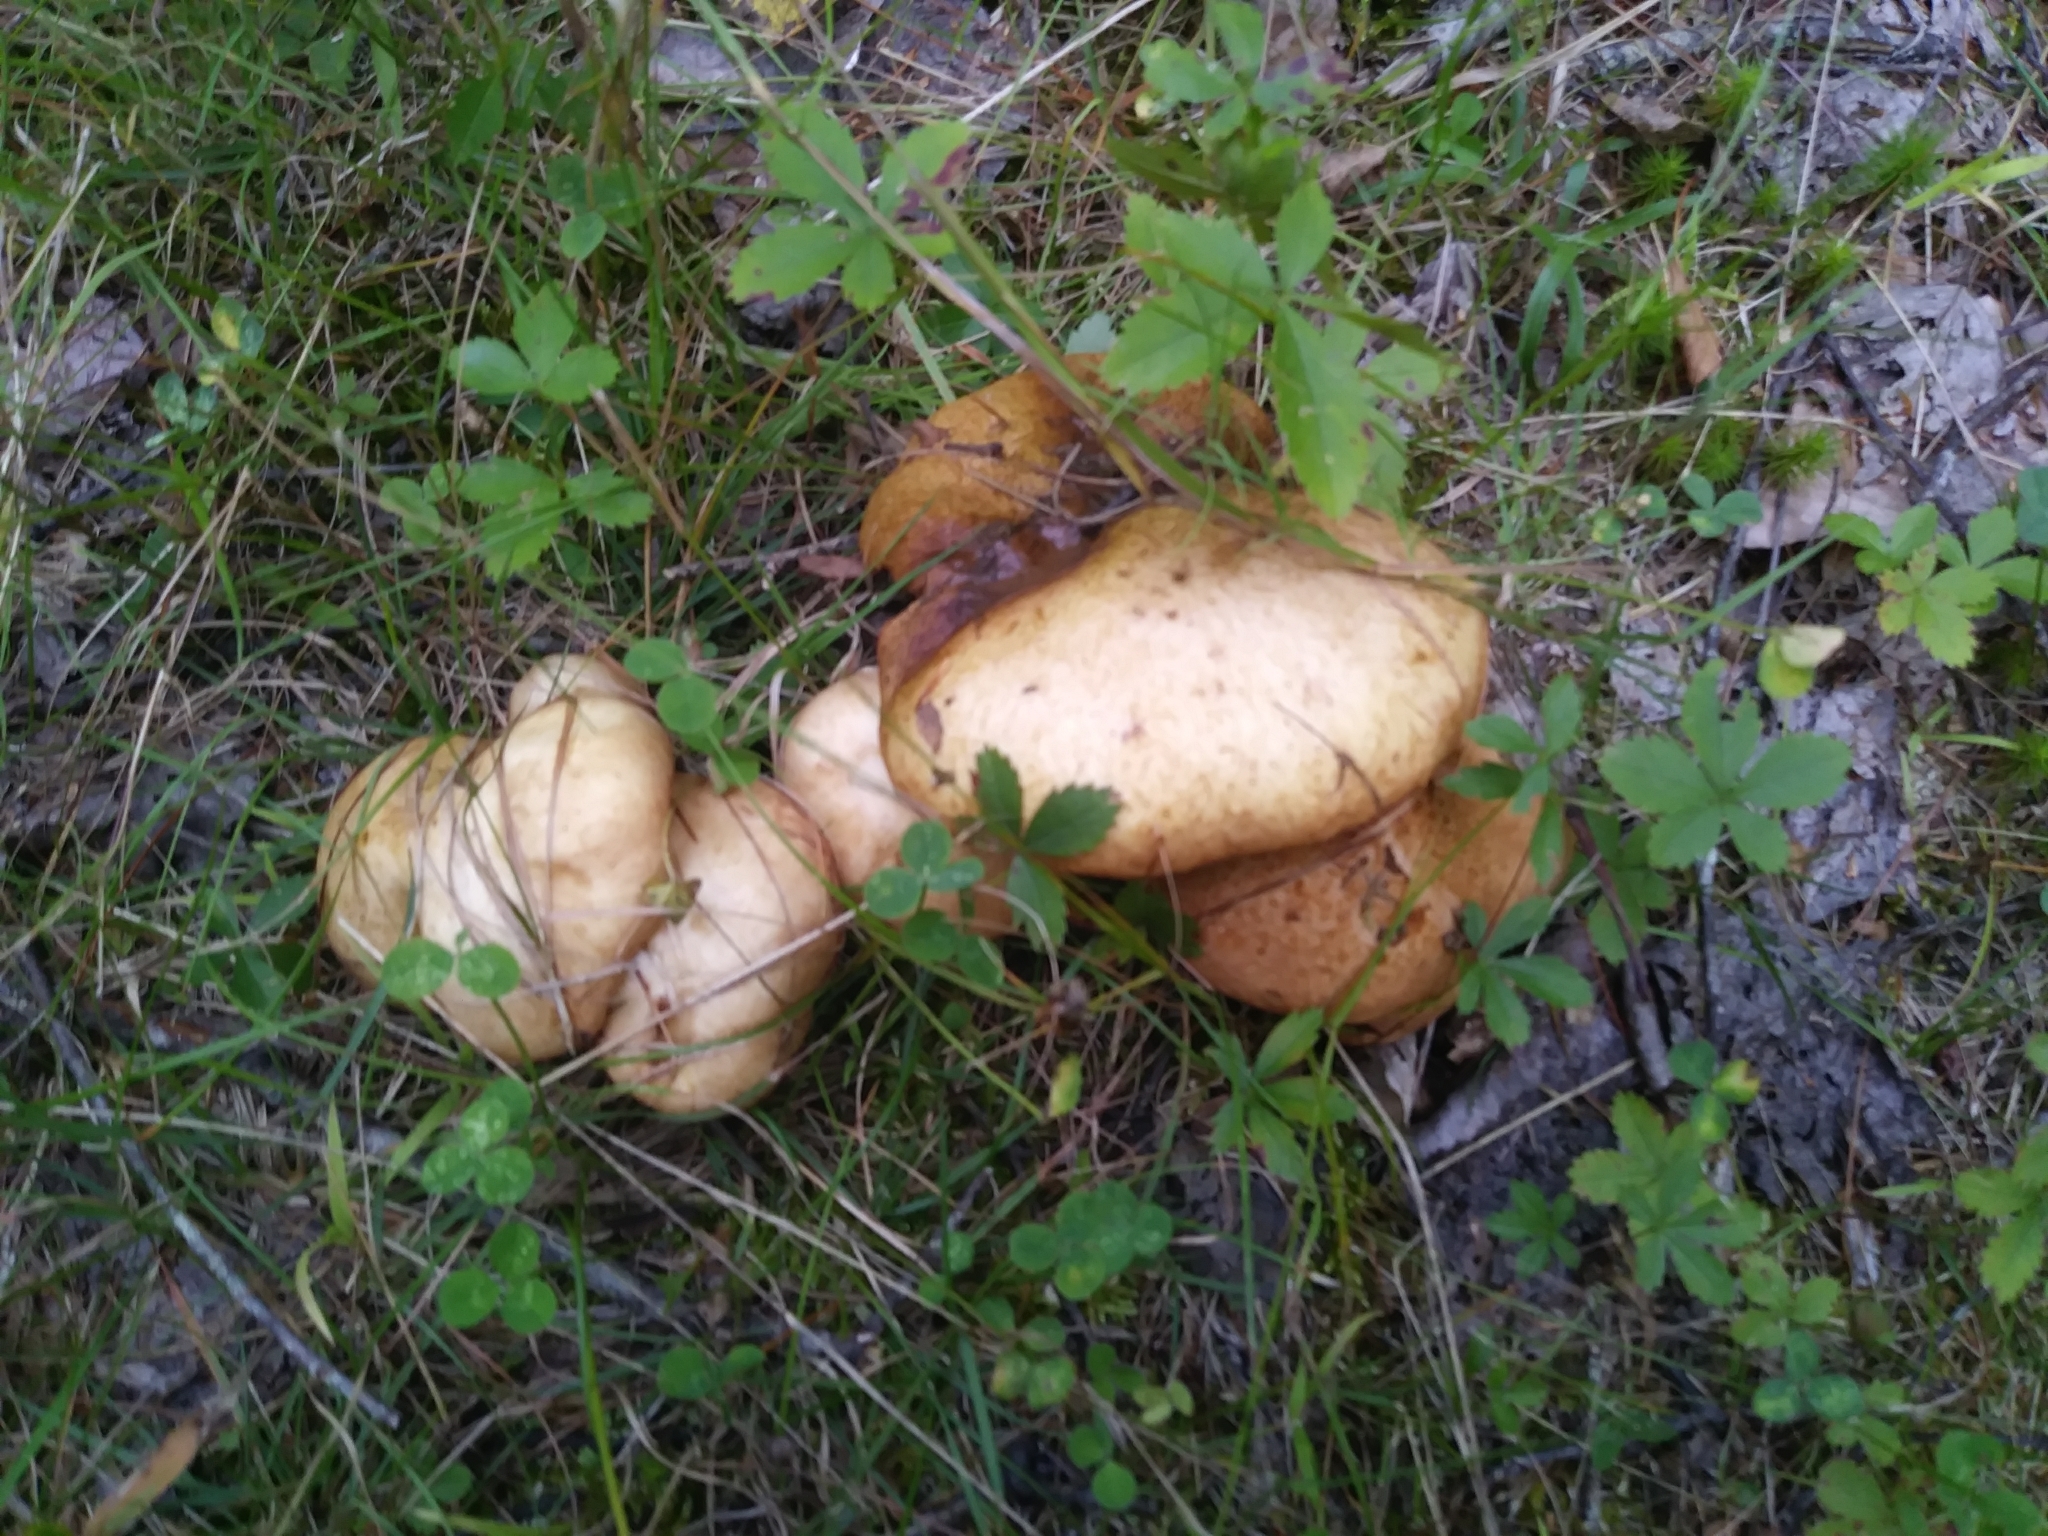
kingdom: Fungi
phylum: Basidiomycota
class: Agaricomycetes
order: Boletales
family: Suillaceae
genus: Suillus
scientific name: Suillus granulatus
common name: Weeping bolete
